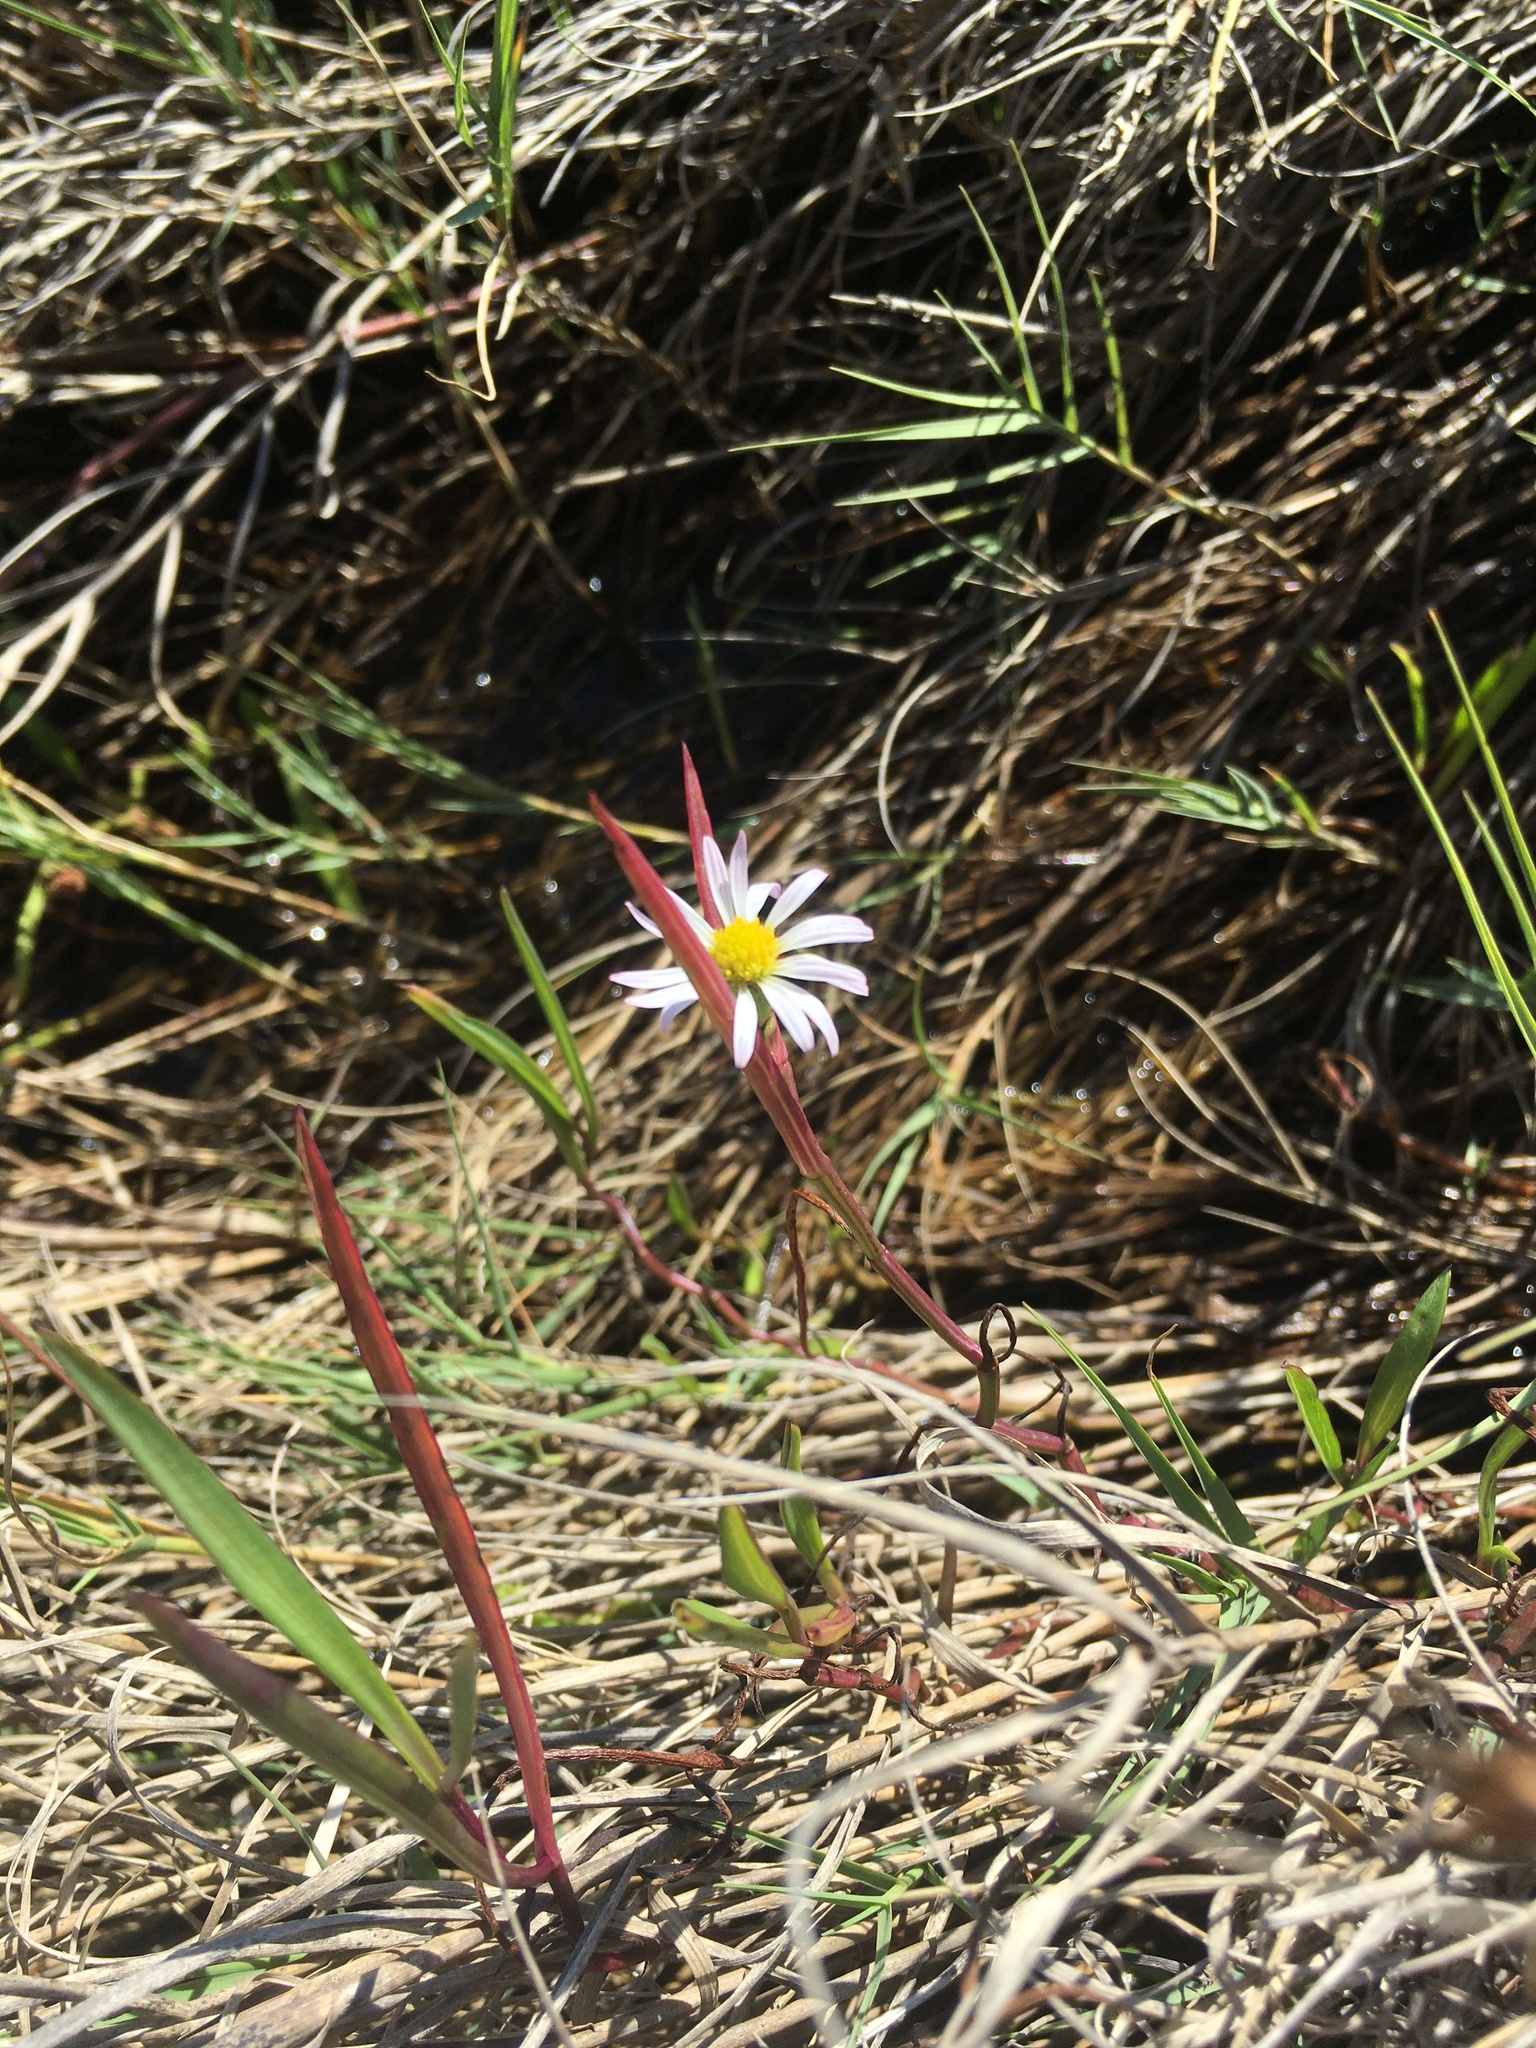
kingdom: Plantae
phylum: Tracheophyta
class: Magnoliopsida
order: Asterales
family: Asteraceae
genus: Symphyotrichum
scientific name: Symphyotrichum tenuifolium
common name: Perennial salt-marsh aster
